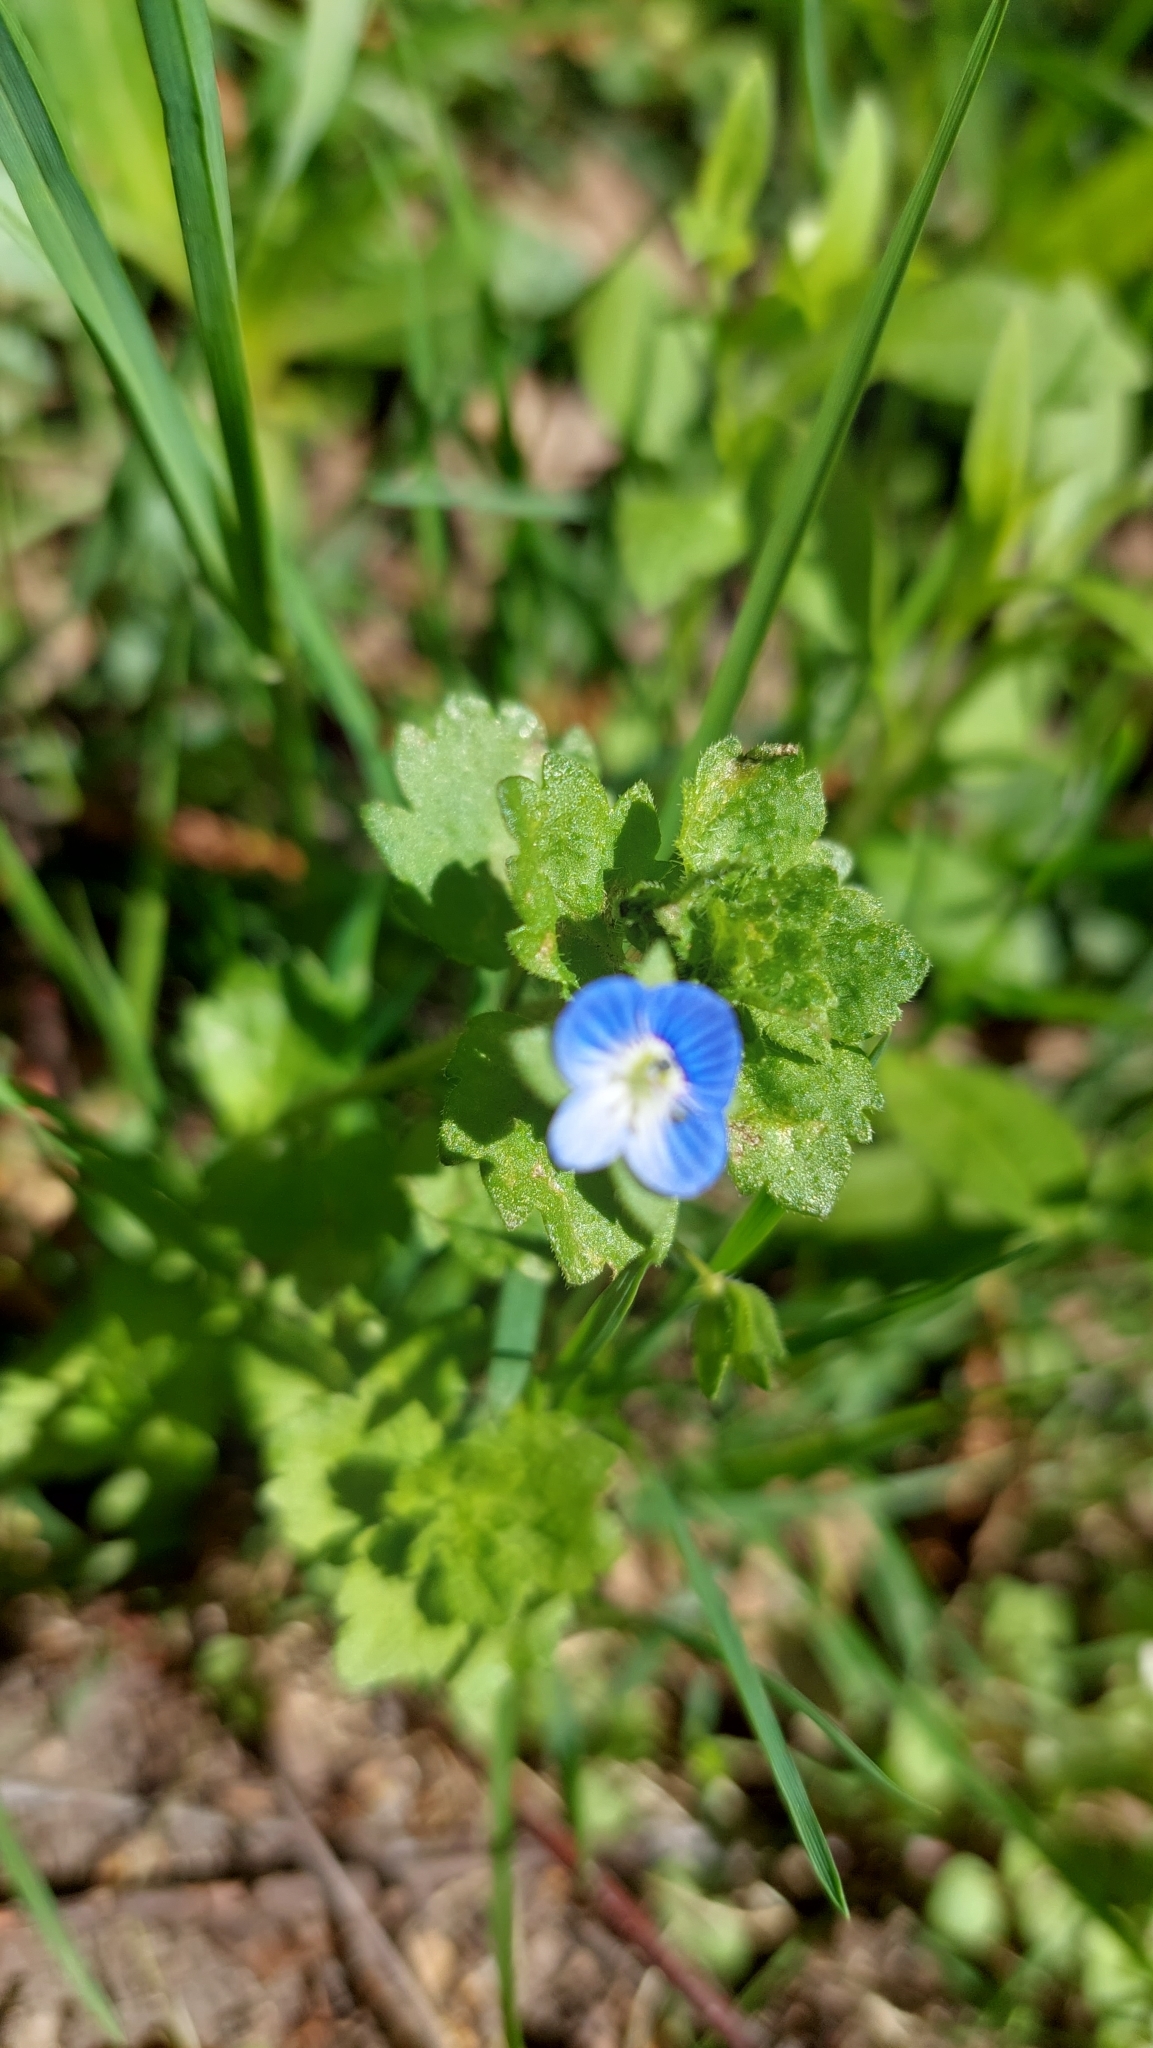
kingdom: Plantae
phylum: Tracheophyta
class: Magnoliopsida
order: Lamiales
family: Plantaginaceae
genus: Veronica
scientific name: Veronica persica
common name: Common field-speedwell
